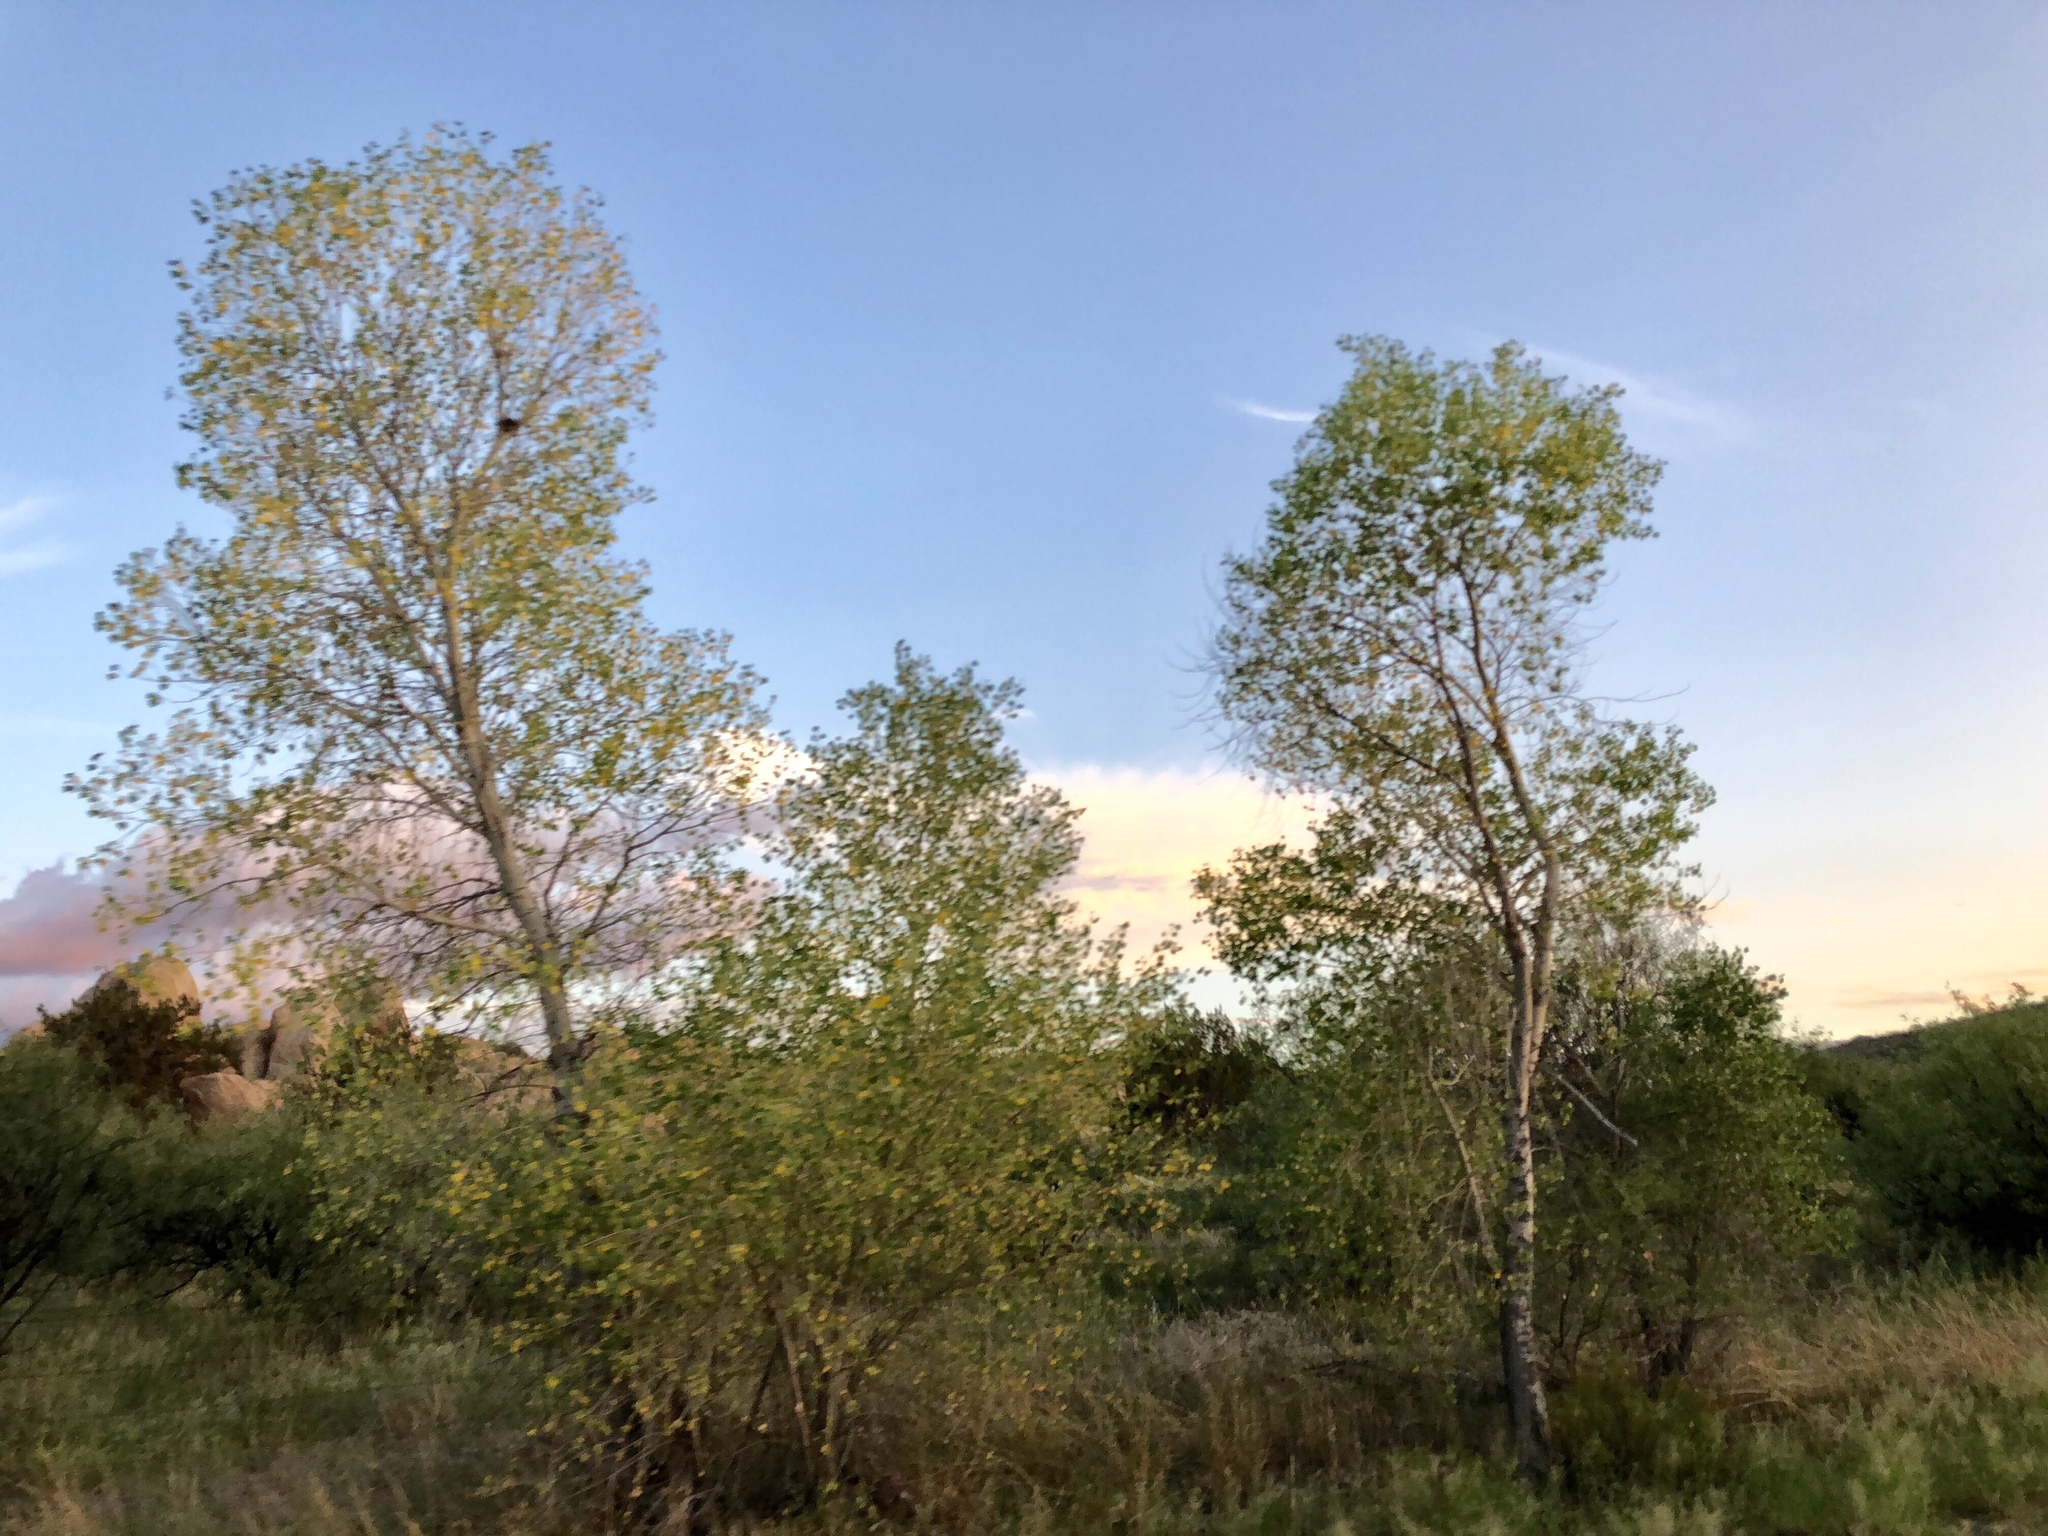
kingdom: Plantae
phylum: Tracheophyta
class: Magnoliopsida
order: Malpighiales
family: Salicaceae
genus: Populus
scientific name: Populus fremontii
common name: Fremont's cottonwood
